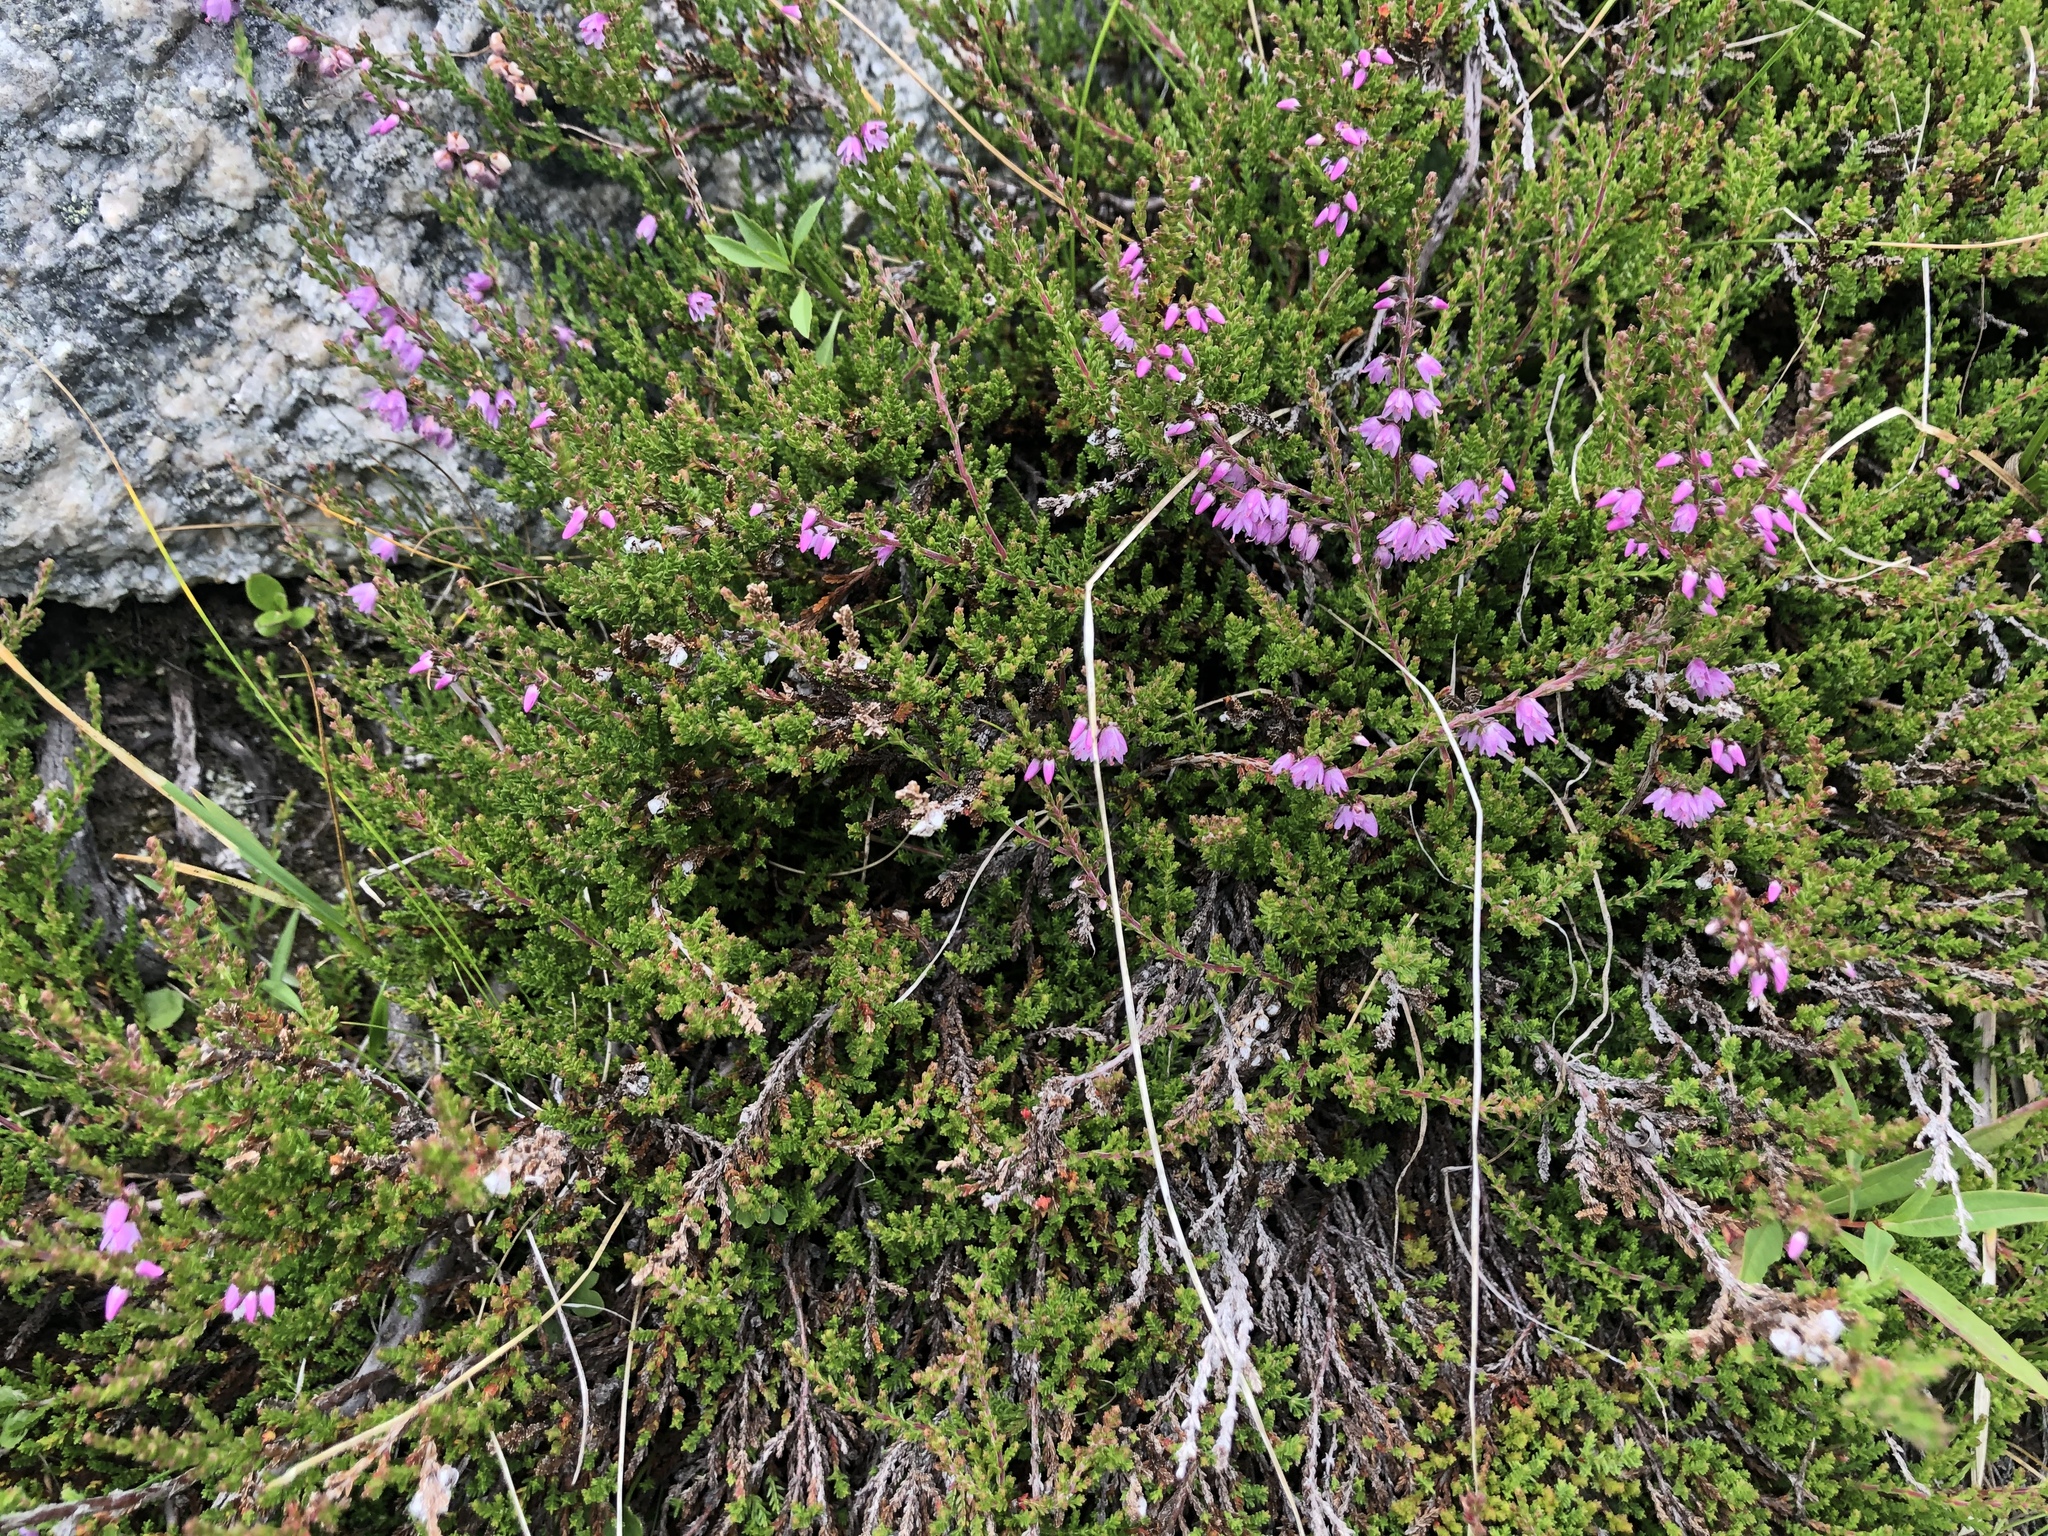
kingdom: Plantae
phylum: Tracheophyta
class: Magnoliopsida
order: Ericales
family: Ericaceae
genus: Calluna
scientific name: Calluna vulgaris
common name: Heather
